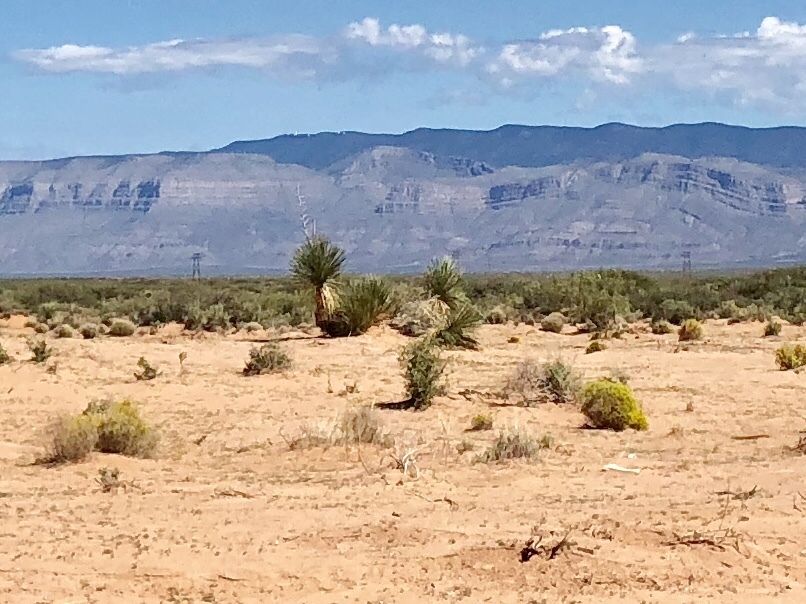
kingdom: Plantae
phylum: Tracheophyta
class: Liliopsida
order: Asparagales
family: Asparagaceae
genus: Yucca
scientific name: Yucca elata
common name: Palmella
